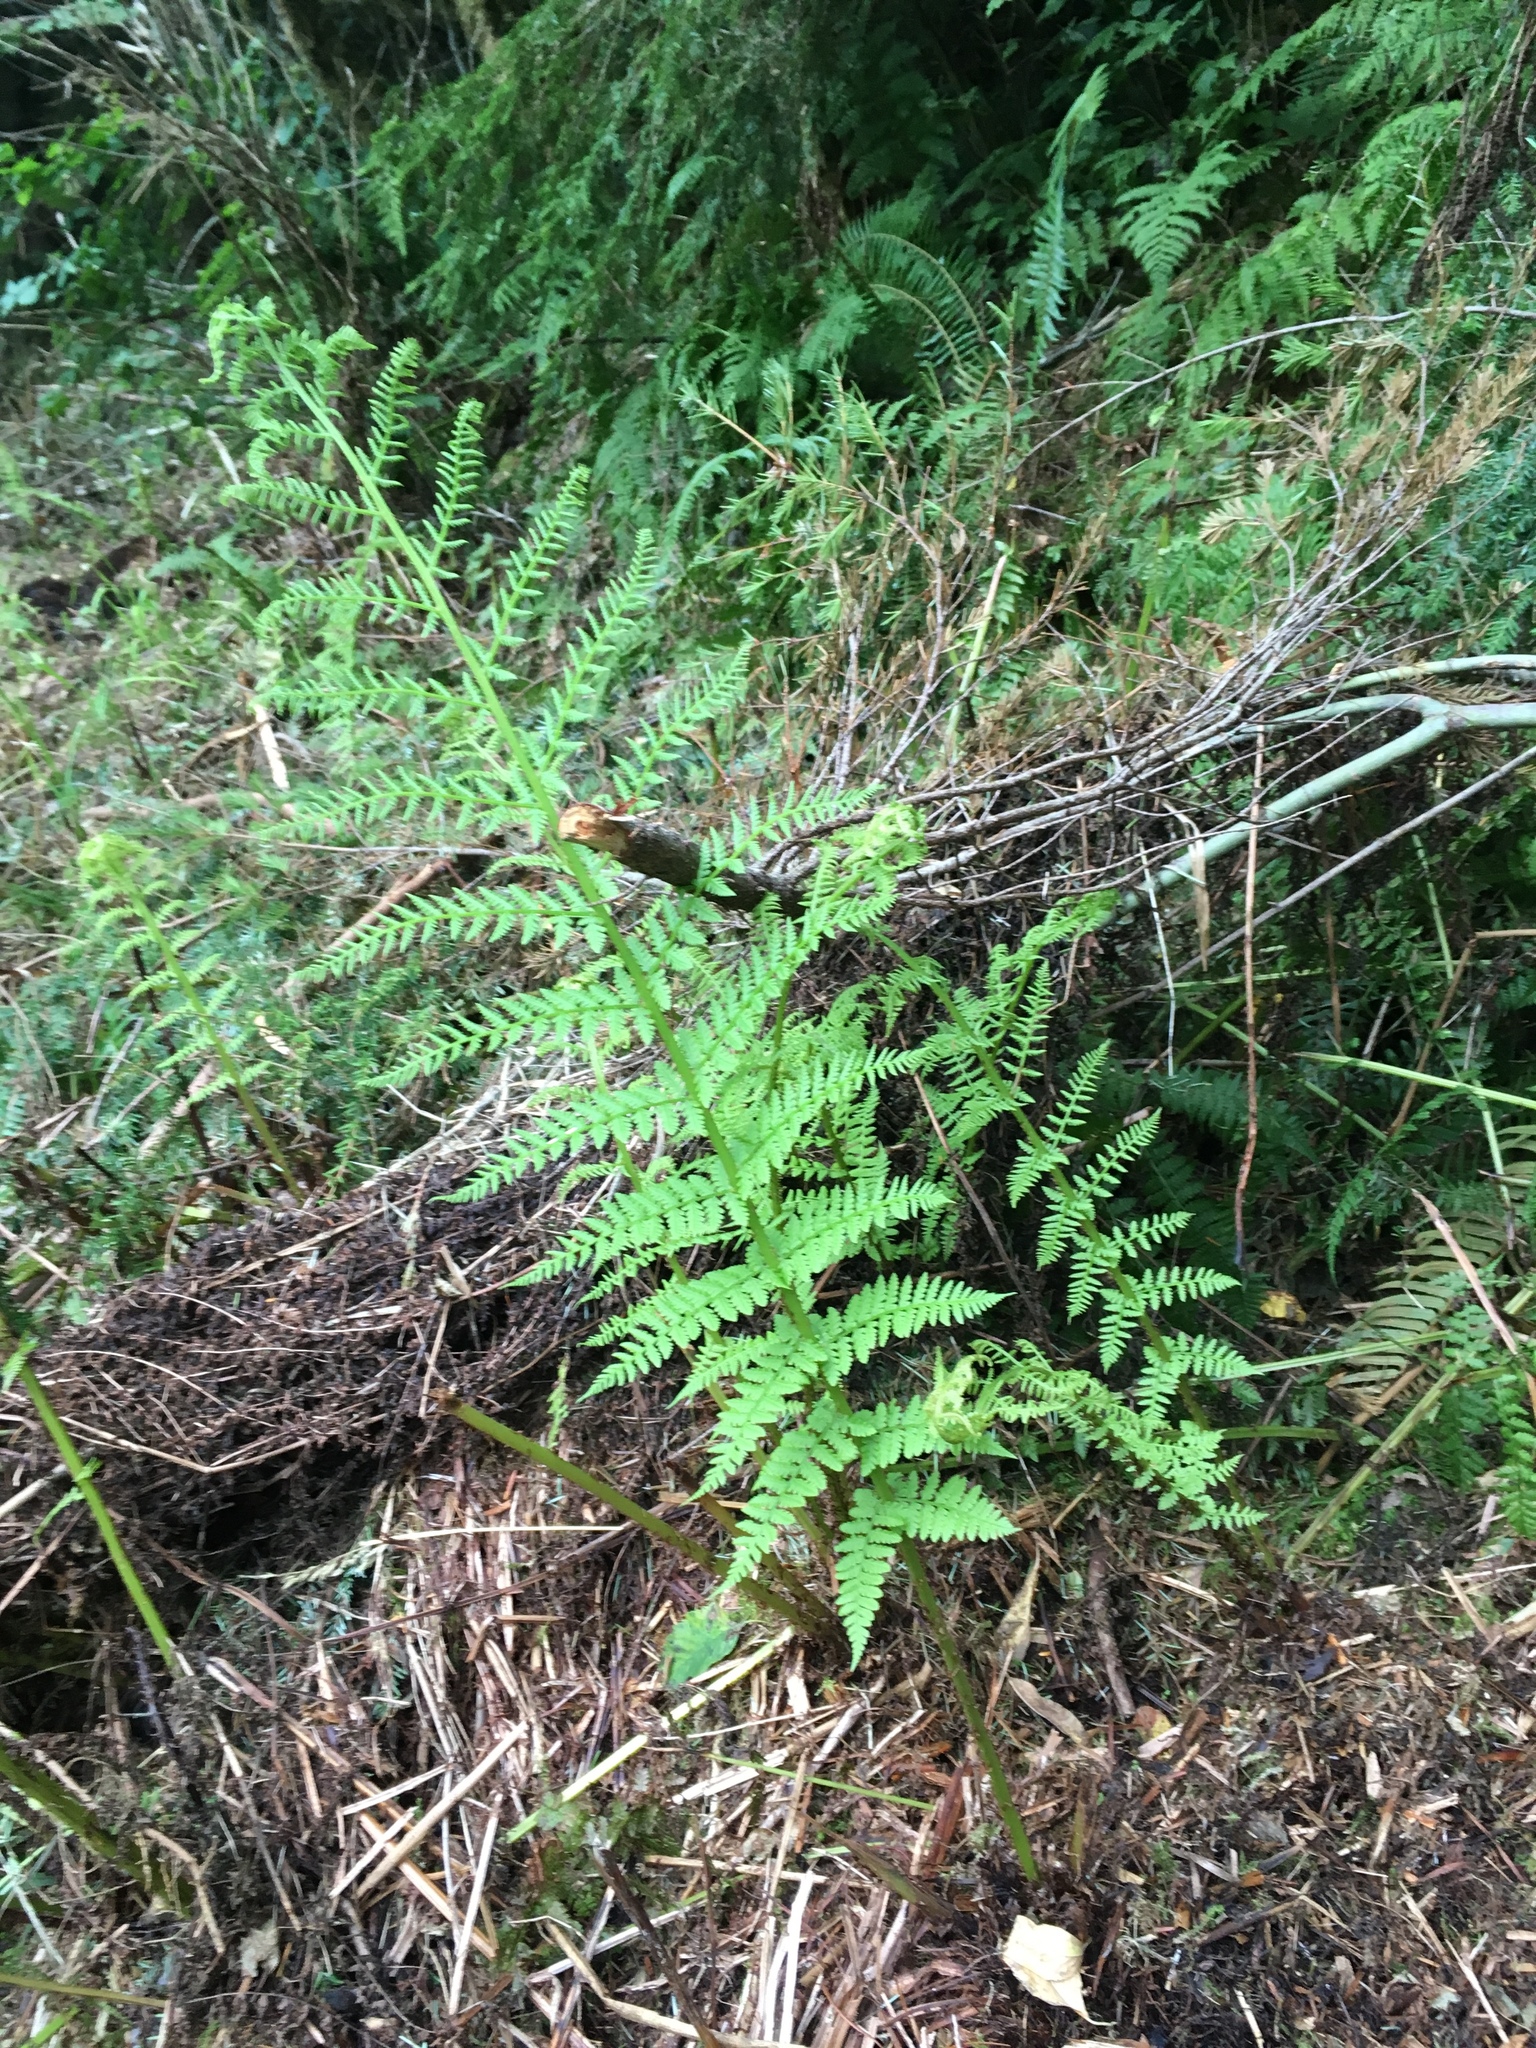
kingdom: Plantae
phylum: Tracheophyta
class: Polypodiopsida
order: Polypodiales
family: Athyriaceae
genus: Athyrium
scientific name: Athyrium filix-femina
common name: Lady fern
